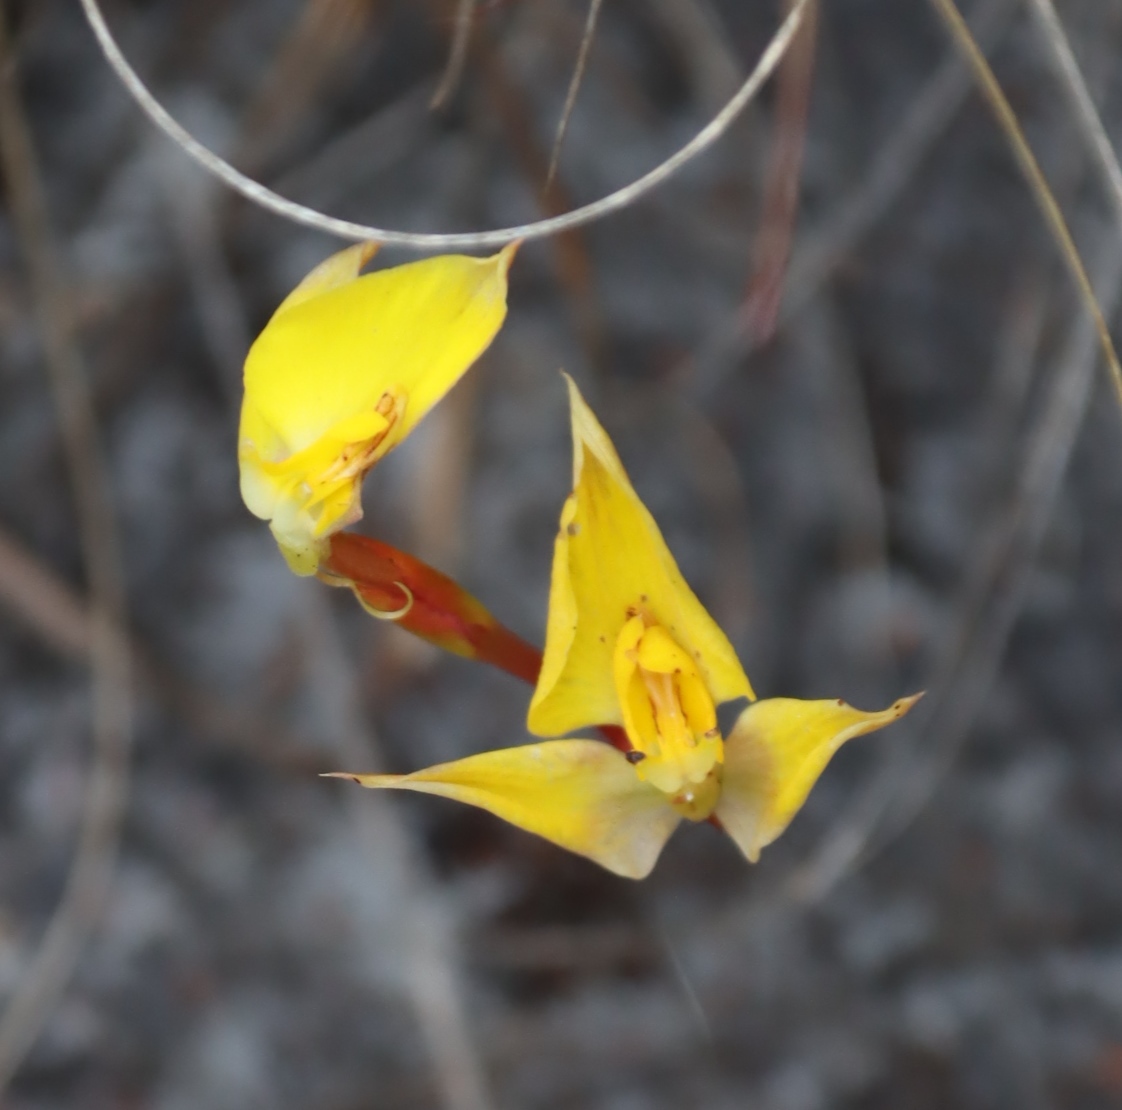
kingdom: Plantae
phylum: Tracheophyta
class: Liliopsida
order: Asparagales
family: Orchidaceae
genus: Disa
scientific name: Disa tenuifolia
